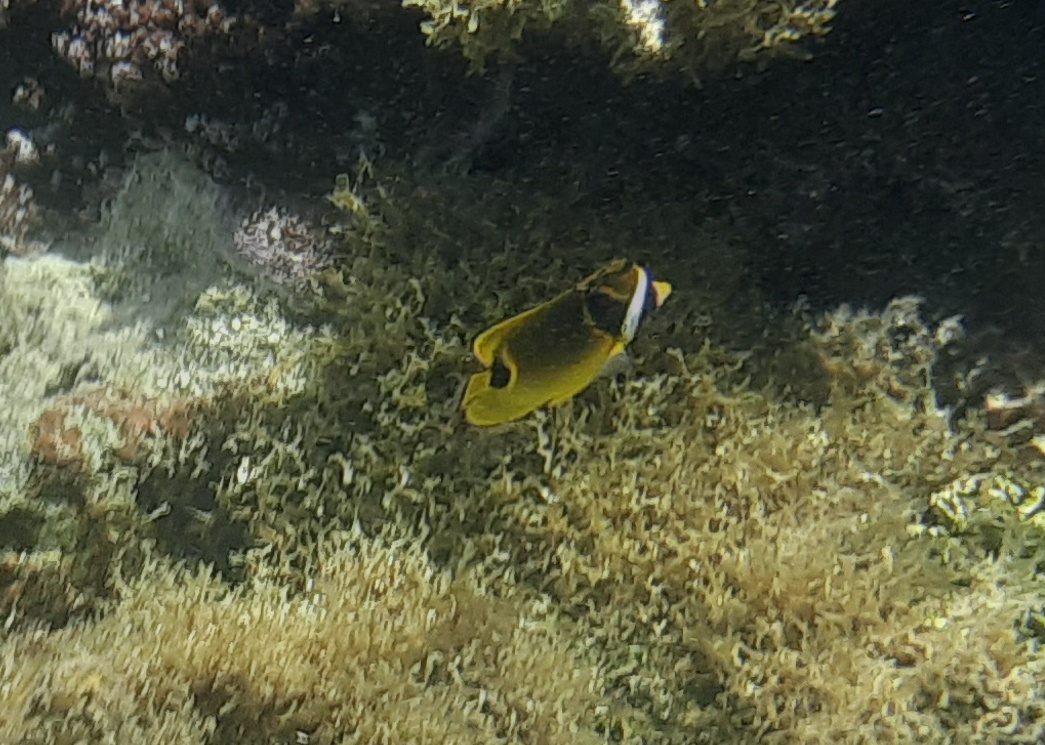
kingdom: Animalia
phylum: Chordata
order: Perciformes
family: Chaetodontidae
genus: Chaetodon
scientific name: Chaetodon lunula
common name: Raccoon butterflyfish
